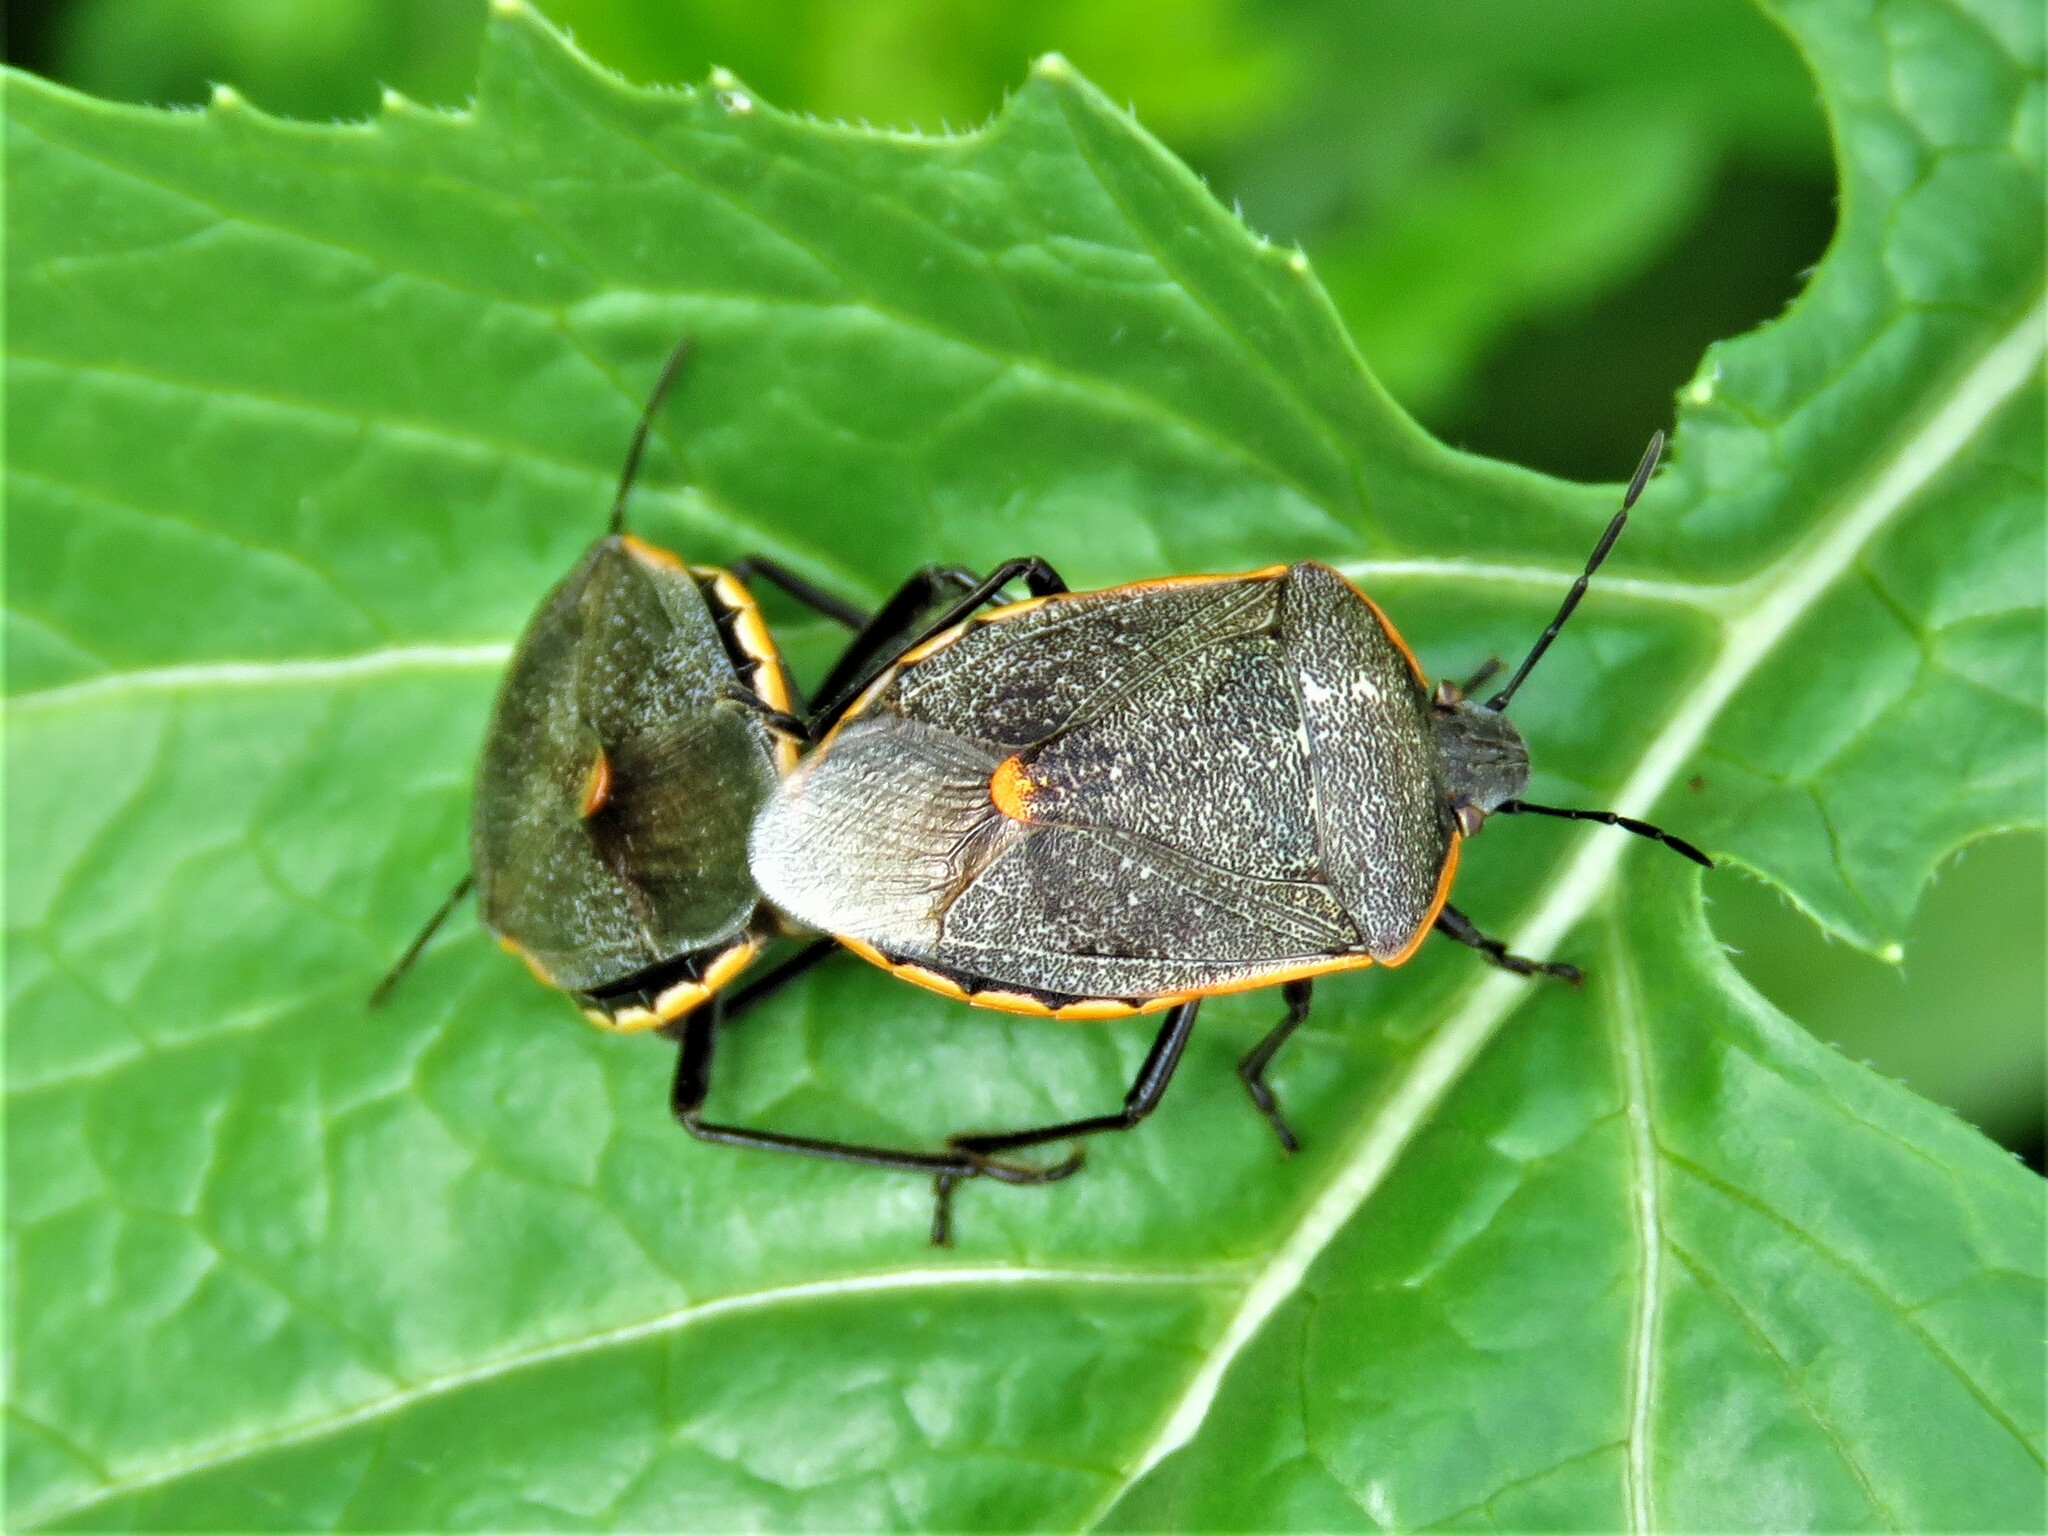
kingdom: Animalia
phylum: Arthropoda
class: Insecta
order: Hemiptera
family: Pentatomidae
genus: Chlorochroa
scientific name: Chlorochroa ligata
